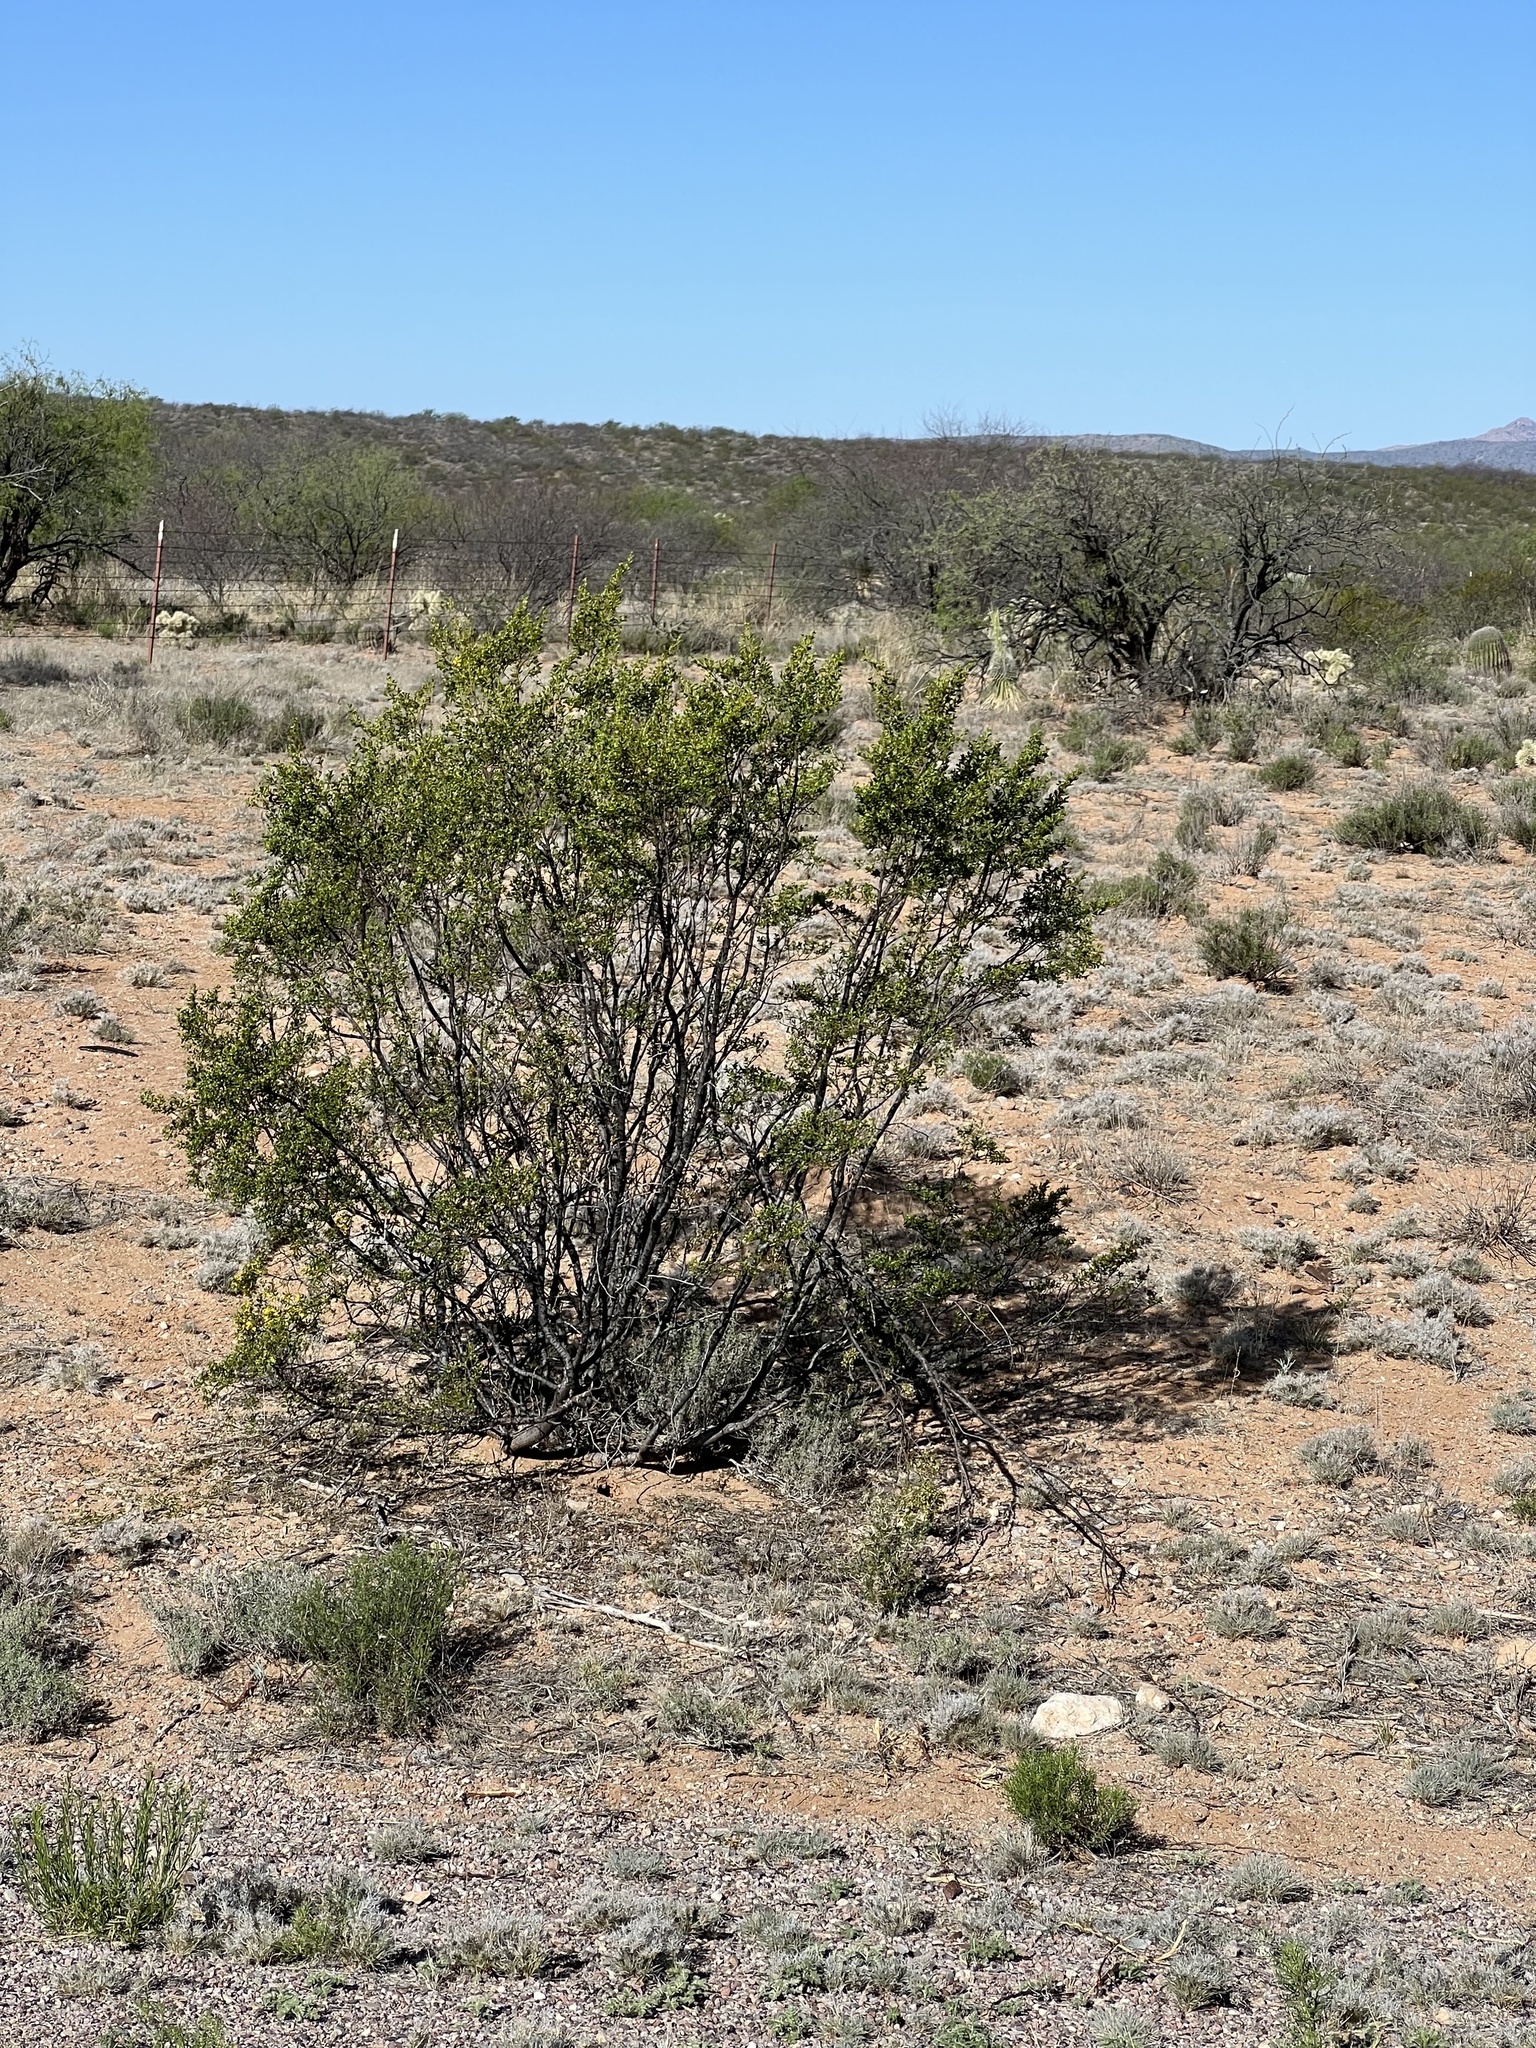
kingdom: Plantae
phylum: Tracheophyta
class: Magnoliopsida
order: Zygophyllales
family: Zygophyllaceae
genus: Larrea
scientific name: Larrea tridentata
